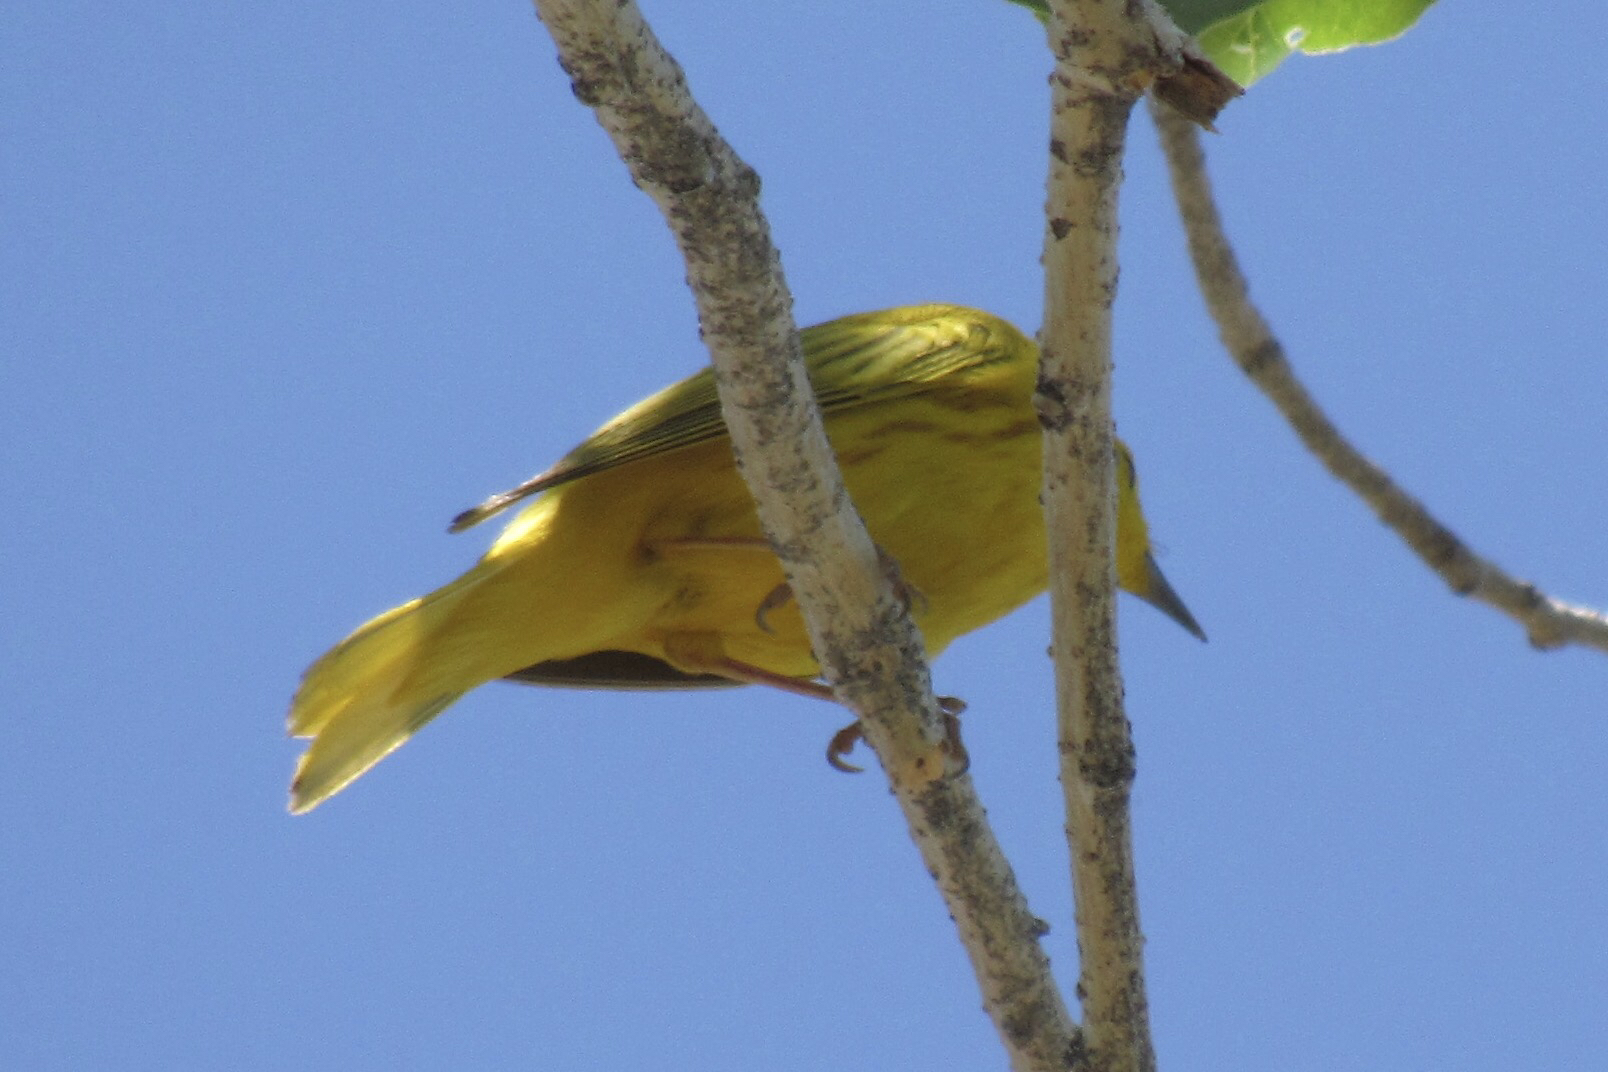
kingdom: Animalia
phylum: Chordata
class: Aves
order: Passeriformes
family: Parulidae
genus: Setophaga
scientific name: Setophaga petechia
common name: Yellow warbler
